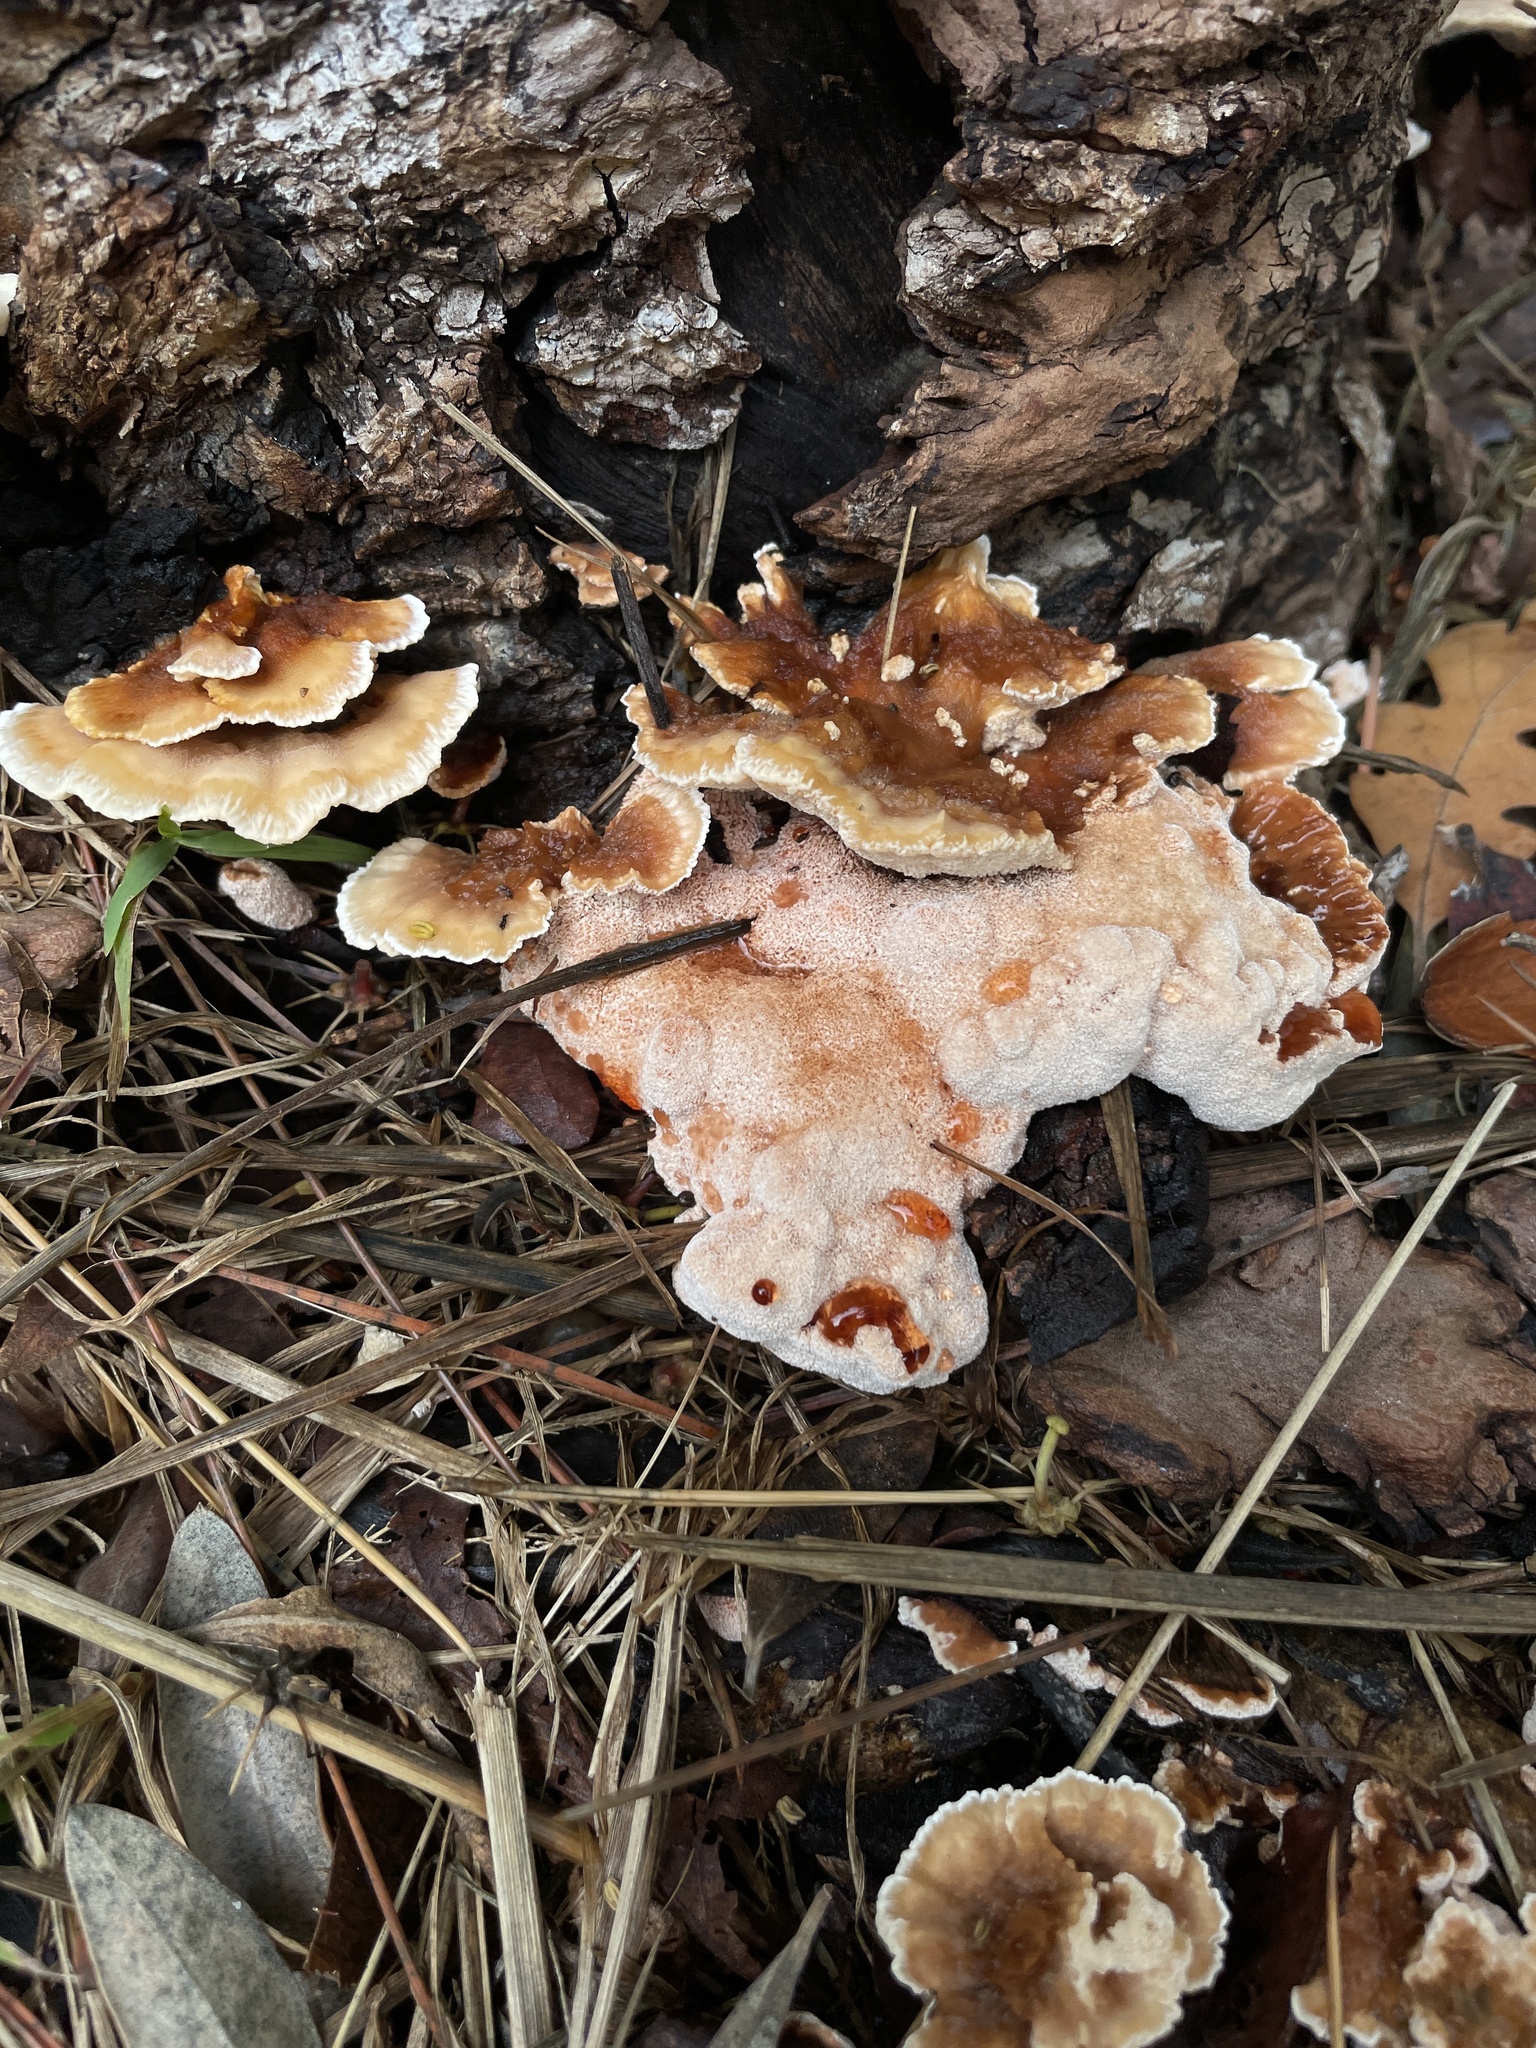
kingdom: Fungi
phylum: Basidiomycota
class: Agaricomycetes
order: Polyporales
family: Podoscyphaceae
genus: Abortiporus
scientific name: Abortiporus biennis
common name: Blushing rosette
